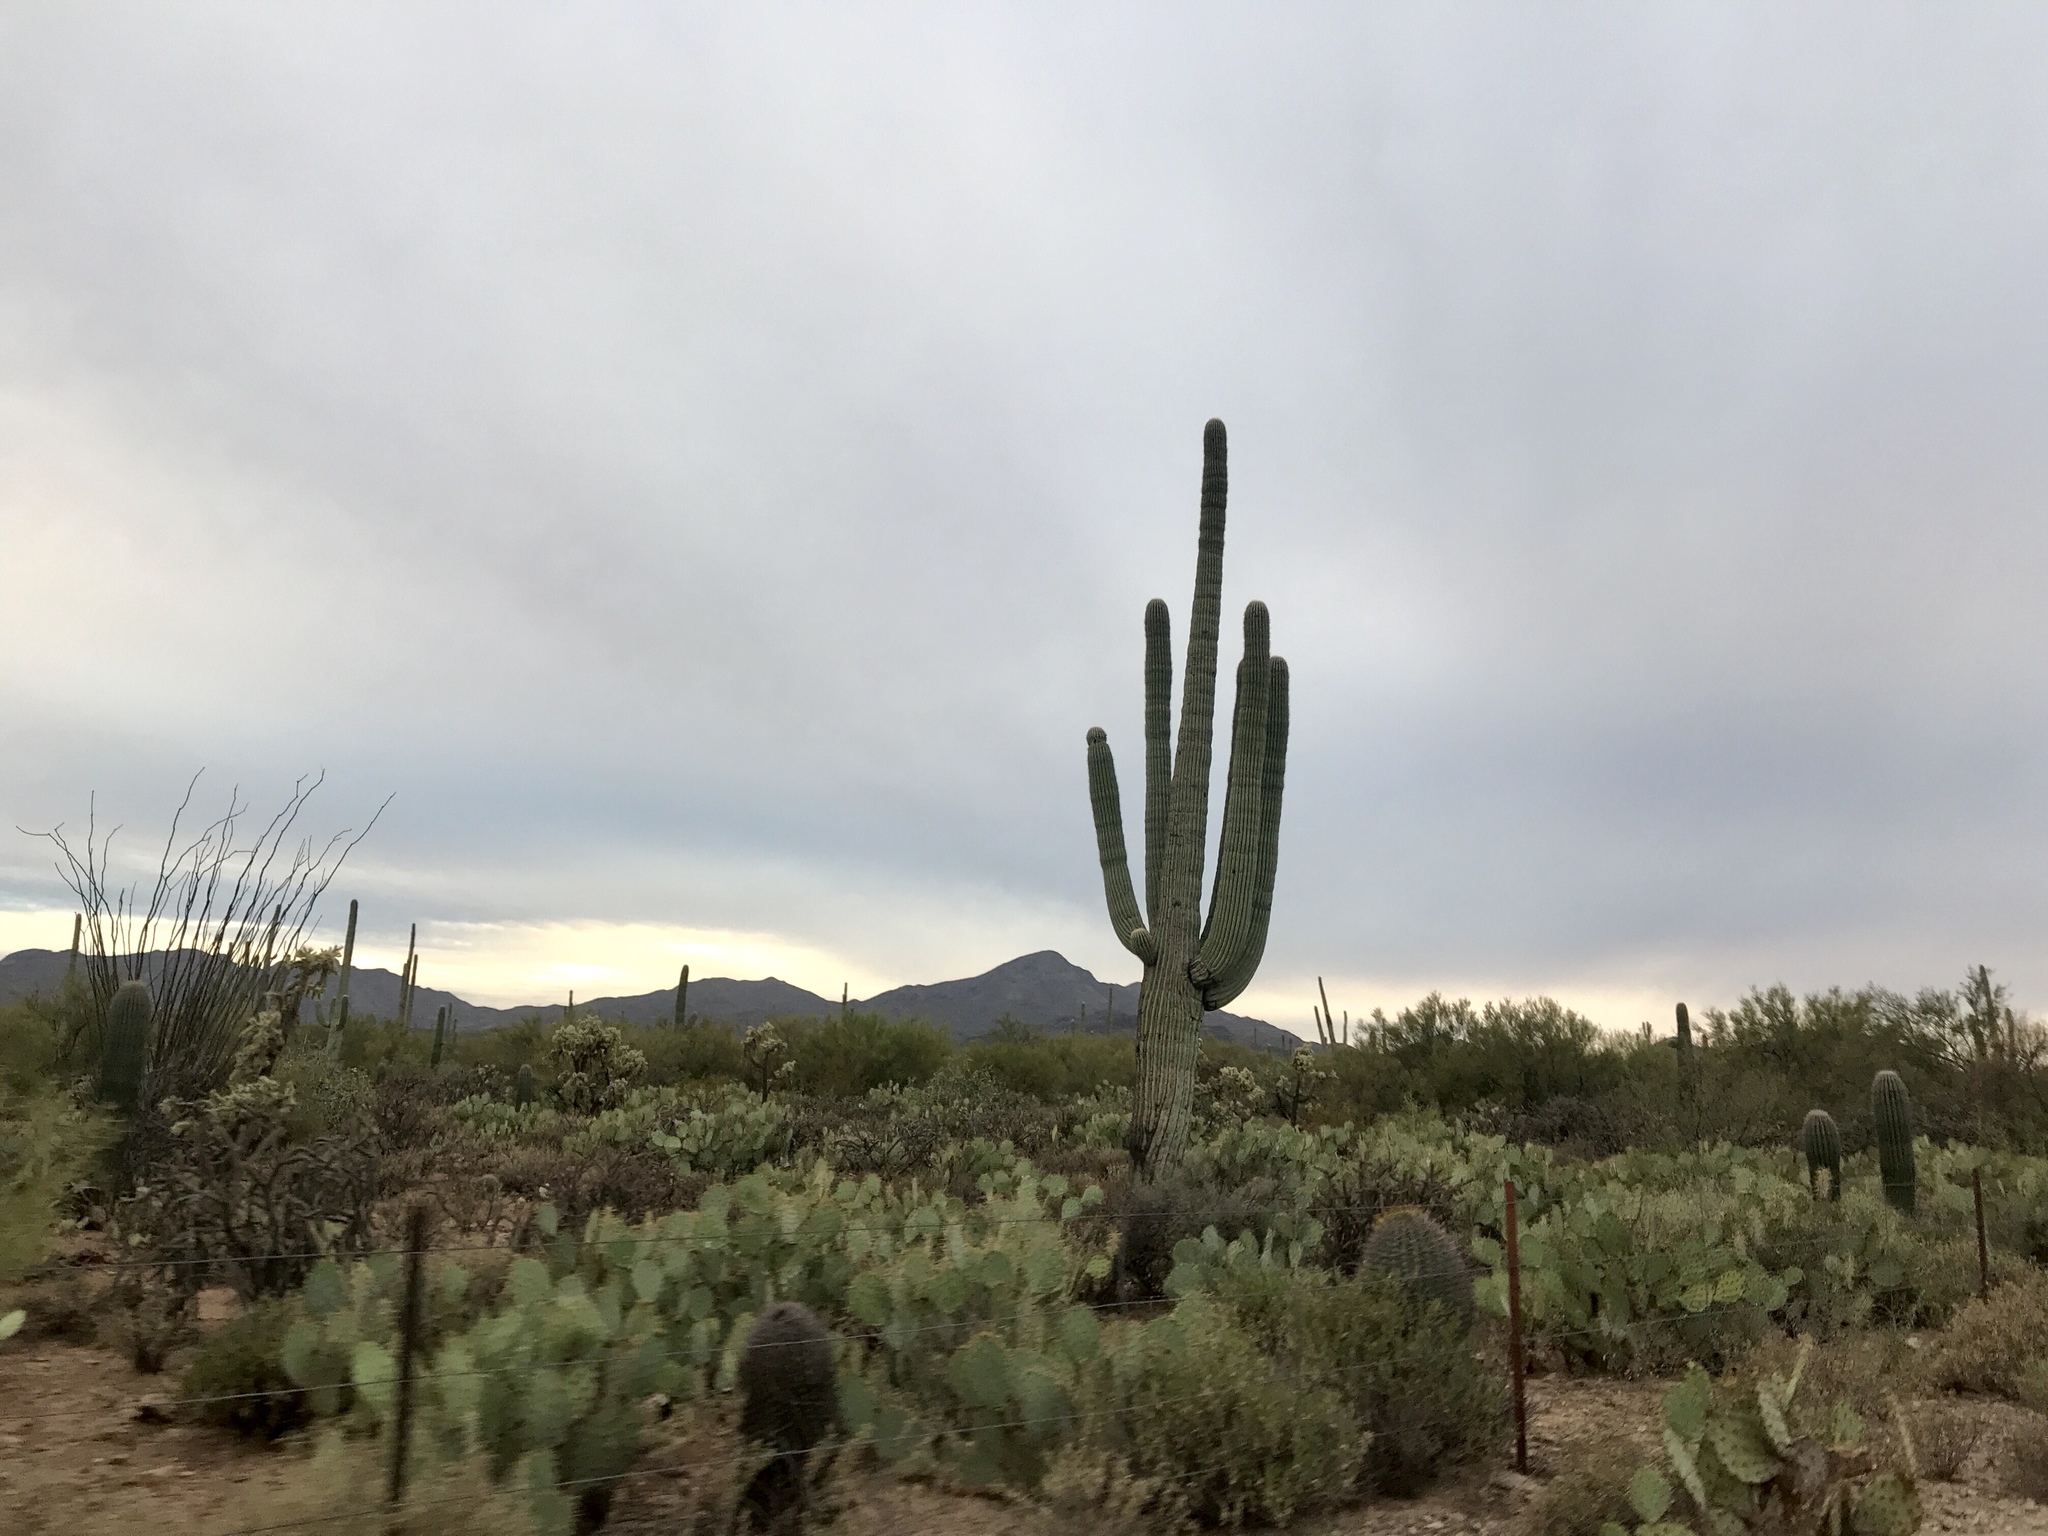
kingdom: Plantae
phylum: Tracheophyta
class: Magnoliopsida
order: Caryophyllales
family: Cactaceae
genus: Carnegiea
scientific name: Carnegiea gigantea
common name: Saguaro
